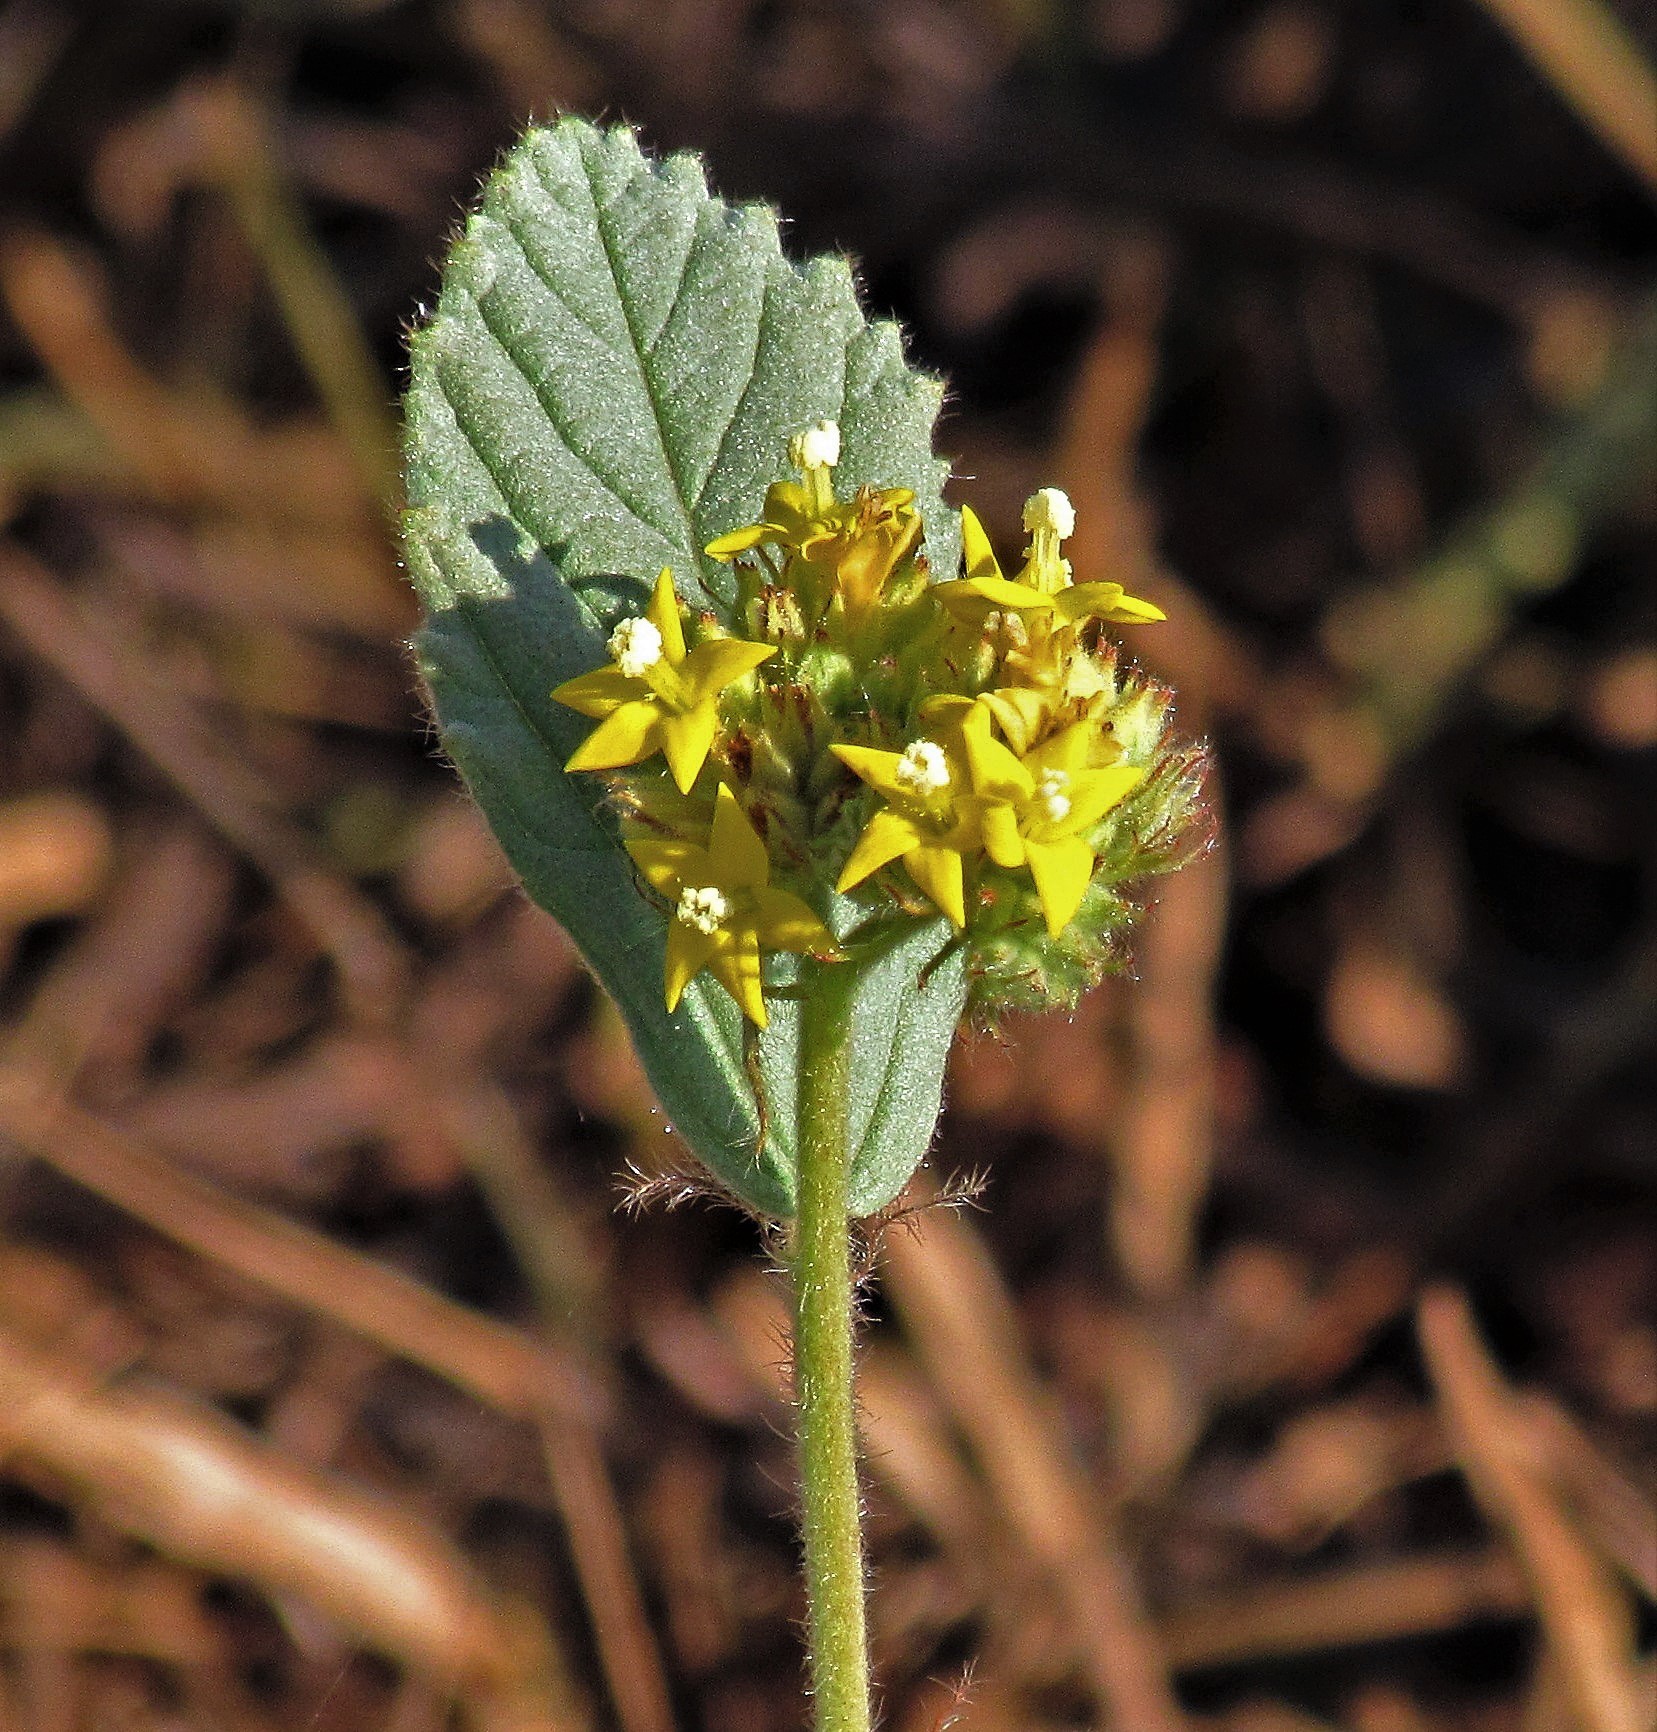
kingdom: Plantae
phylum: Tracheophyta
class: Magnoliopsida
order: Malvales
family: Malvaceae
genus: Waltheria
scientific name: Waltheria communis
